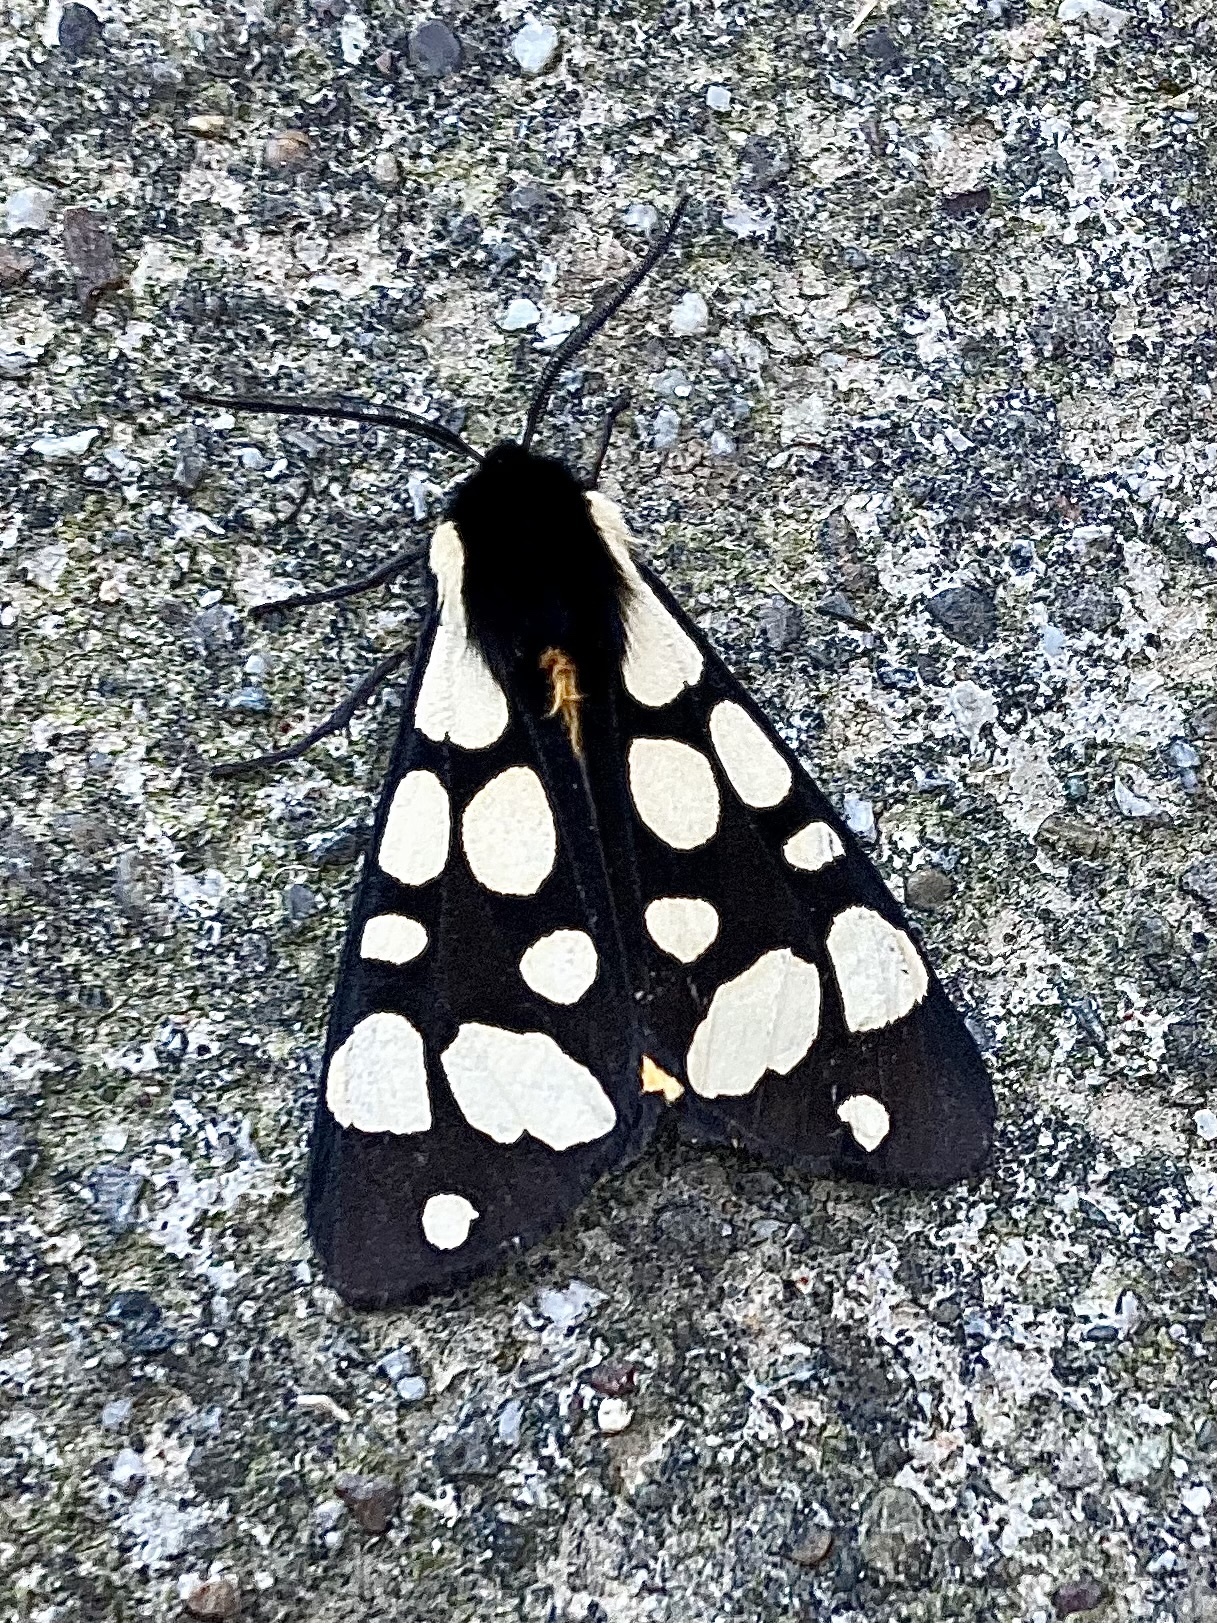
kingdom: Animalia
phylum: Arthropoda
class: Insecta
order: Lepidoptera
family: Erebidae
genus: Epicallia
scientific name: Epicallia villica
